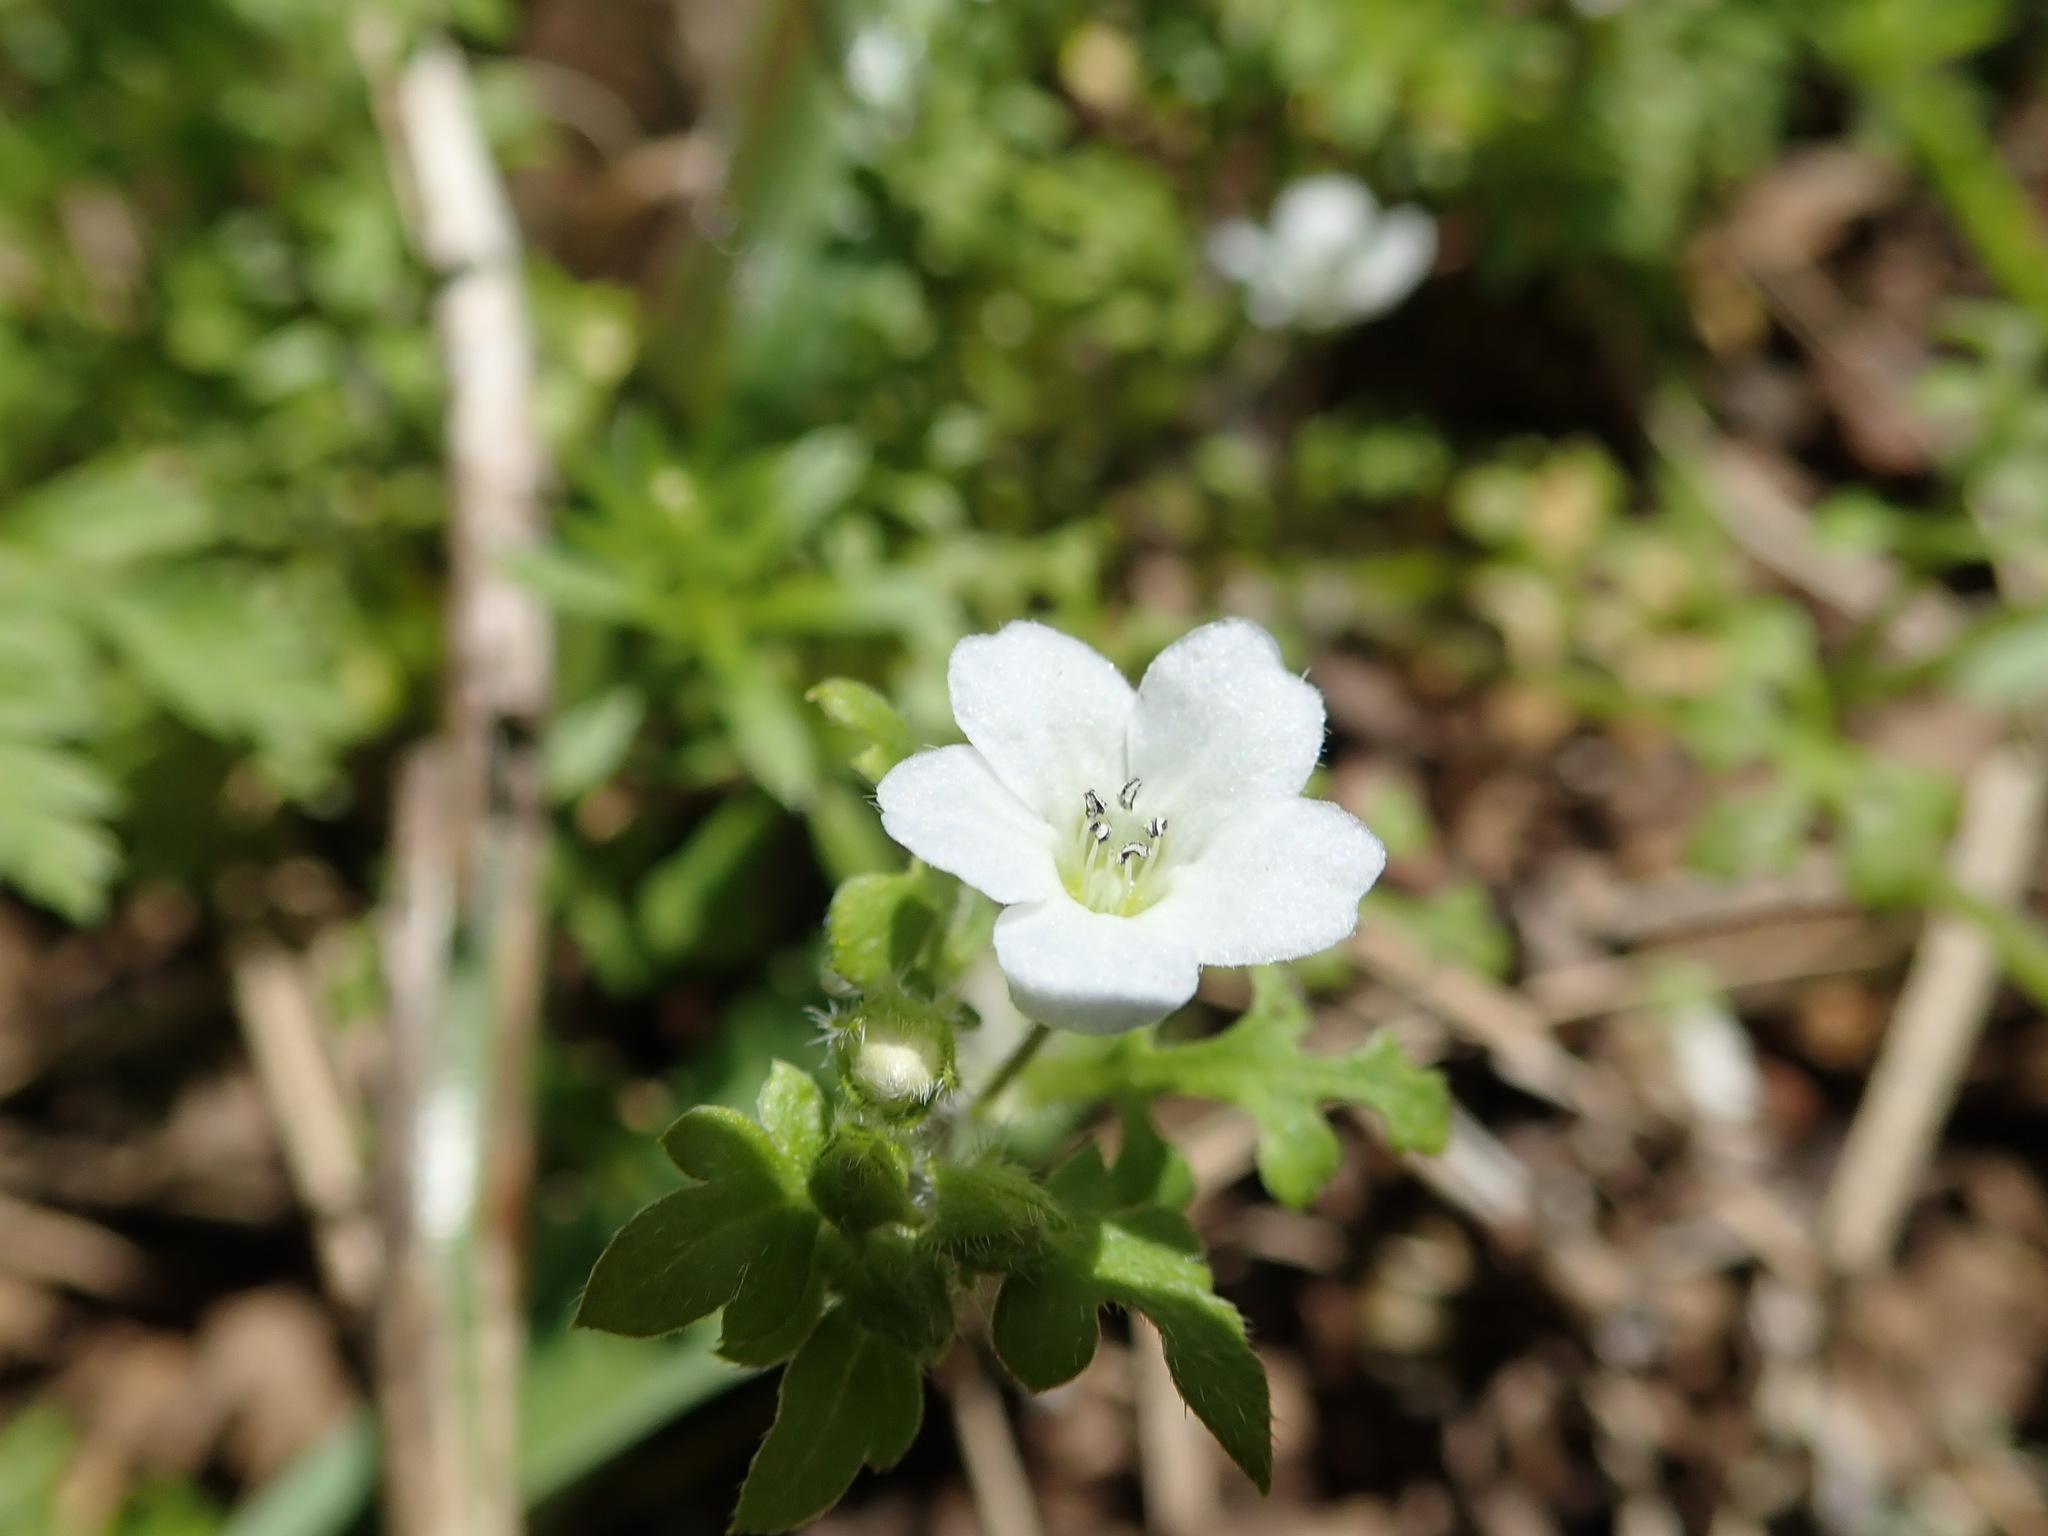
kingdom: Plantae
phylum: Tracheophyta
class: Magnoliopsida
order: Boraginales
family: Hydrophyllaceae
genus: Nemophila
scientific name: Nemophila heterophylla
